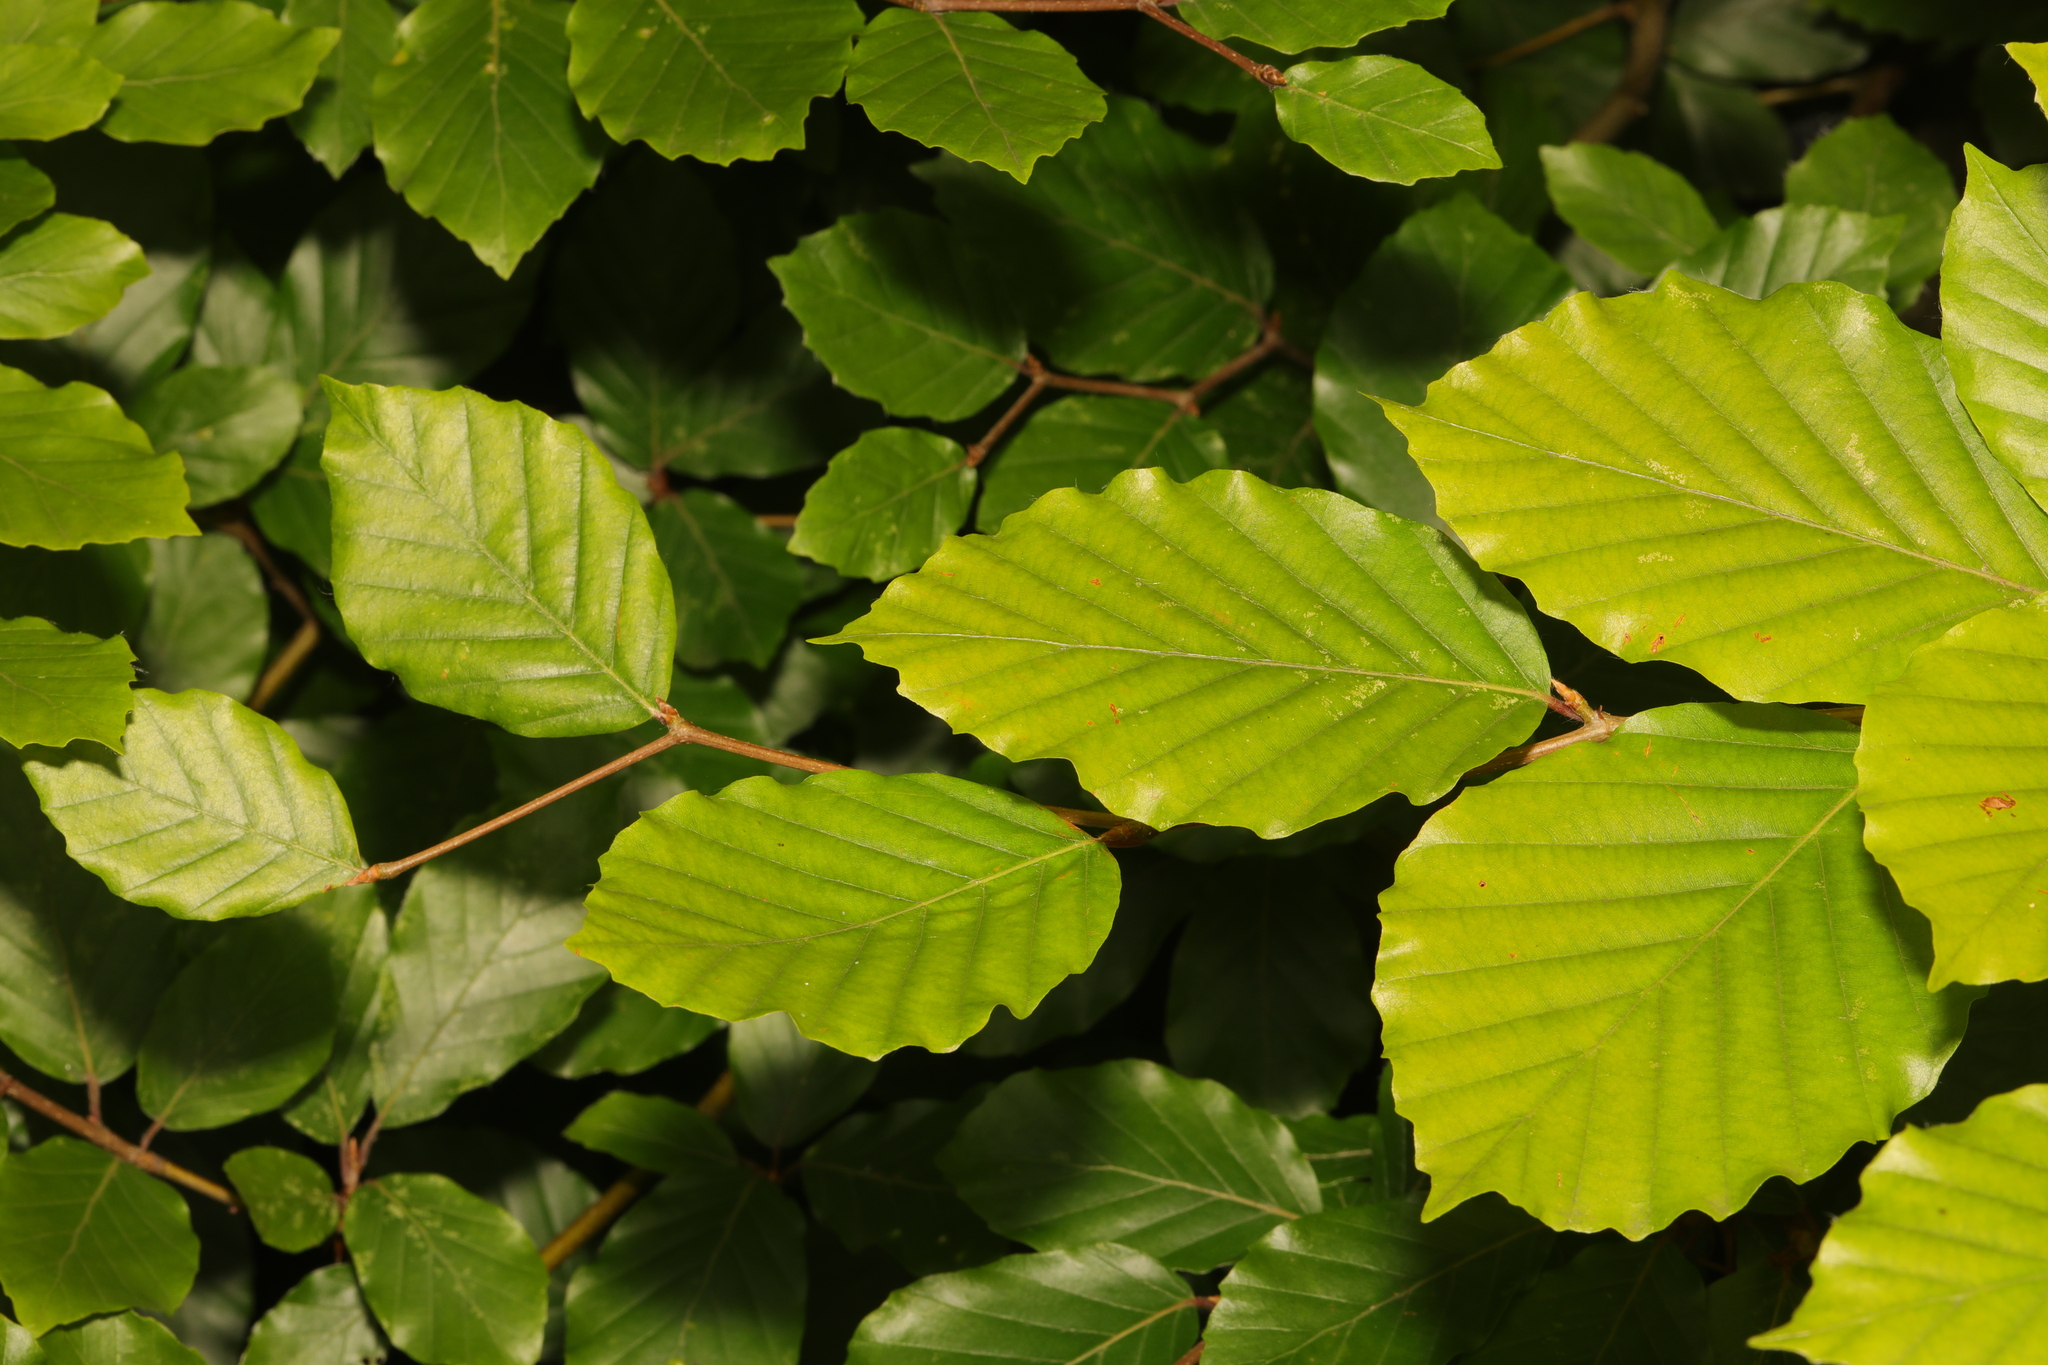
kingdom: Plantae
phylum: Tracheophyta
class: Magnoliopsida
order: Fagales
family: Fagaceae
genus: Fagus
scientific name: Fagus sylvatica
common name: Beech
